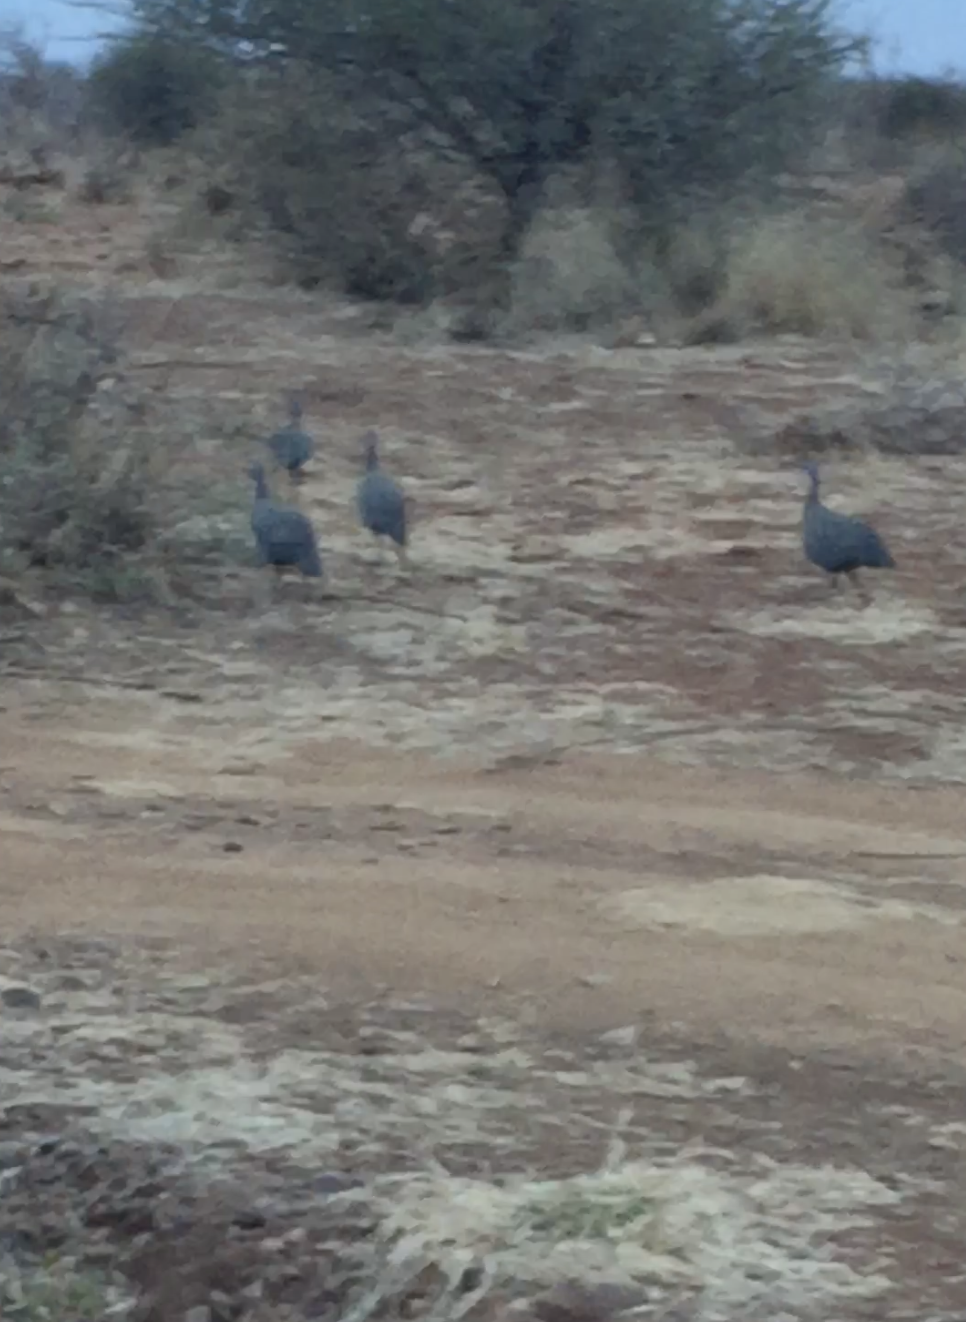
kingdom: Animalia
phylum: Chordata
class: Aves
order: Galliformes
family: Numididae
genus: Numida
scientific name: Numida meleagris
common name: Helmeted guineafowl
